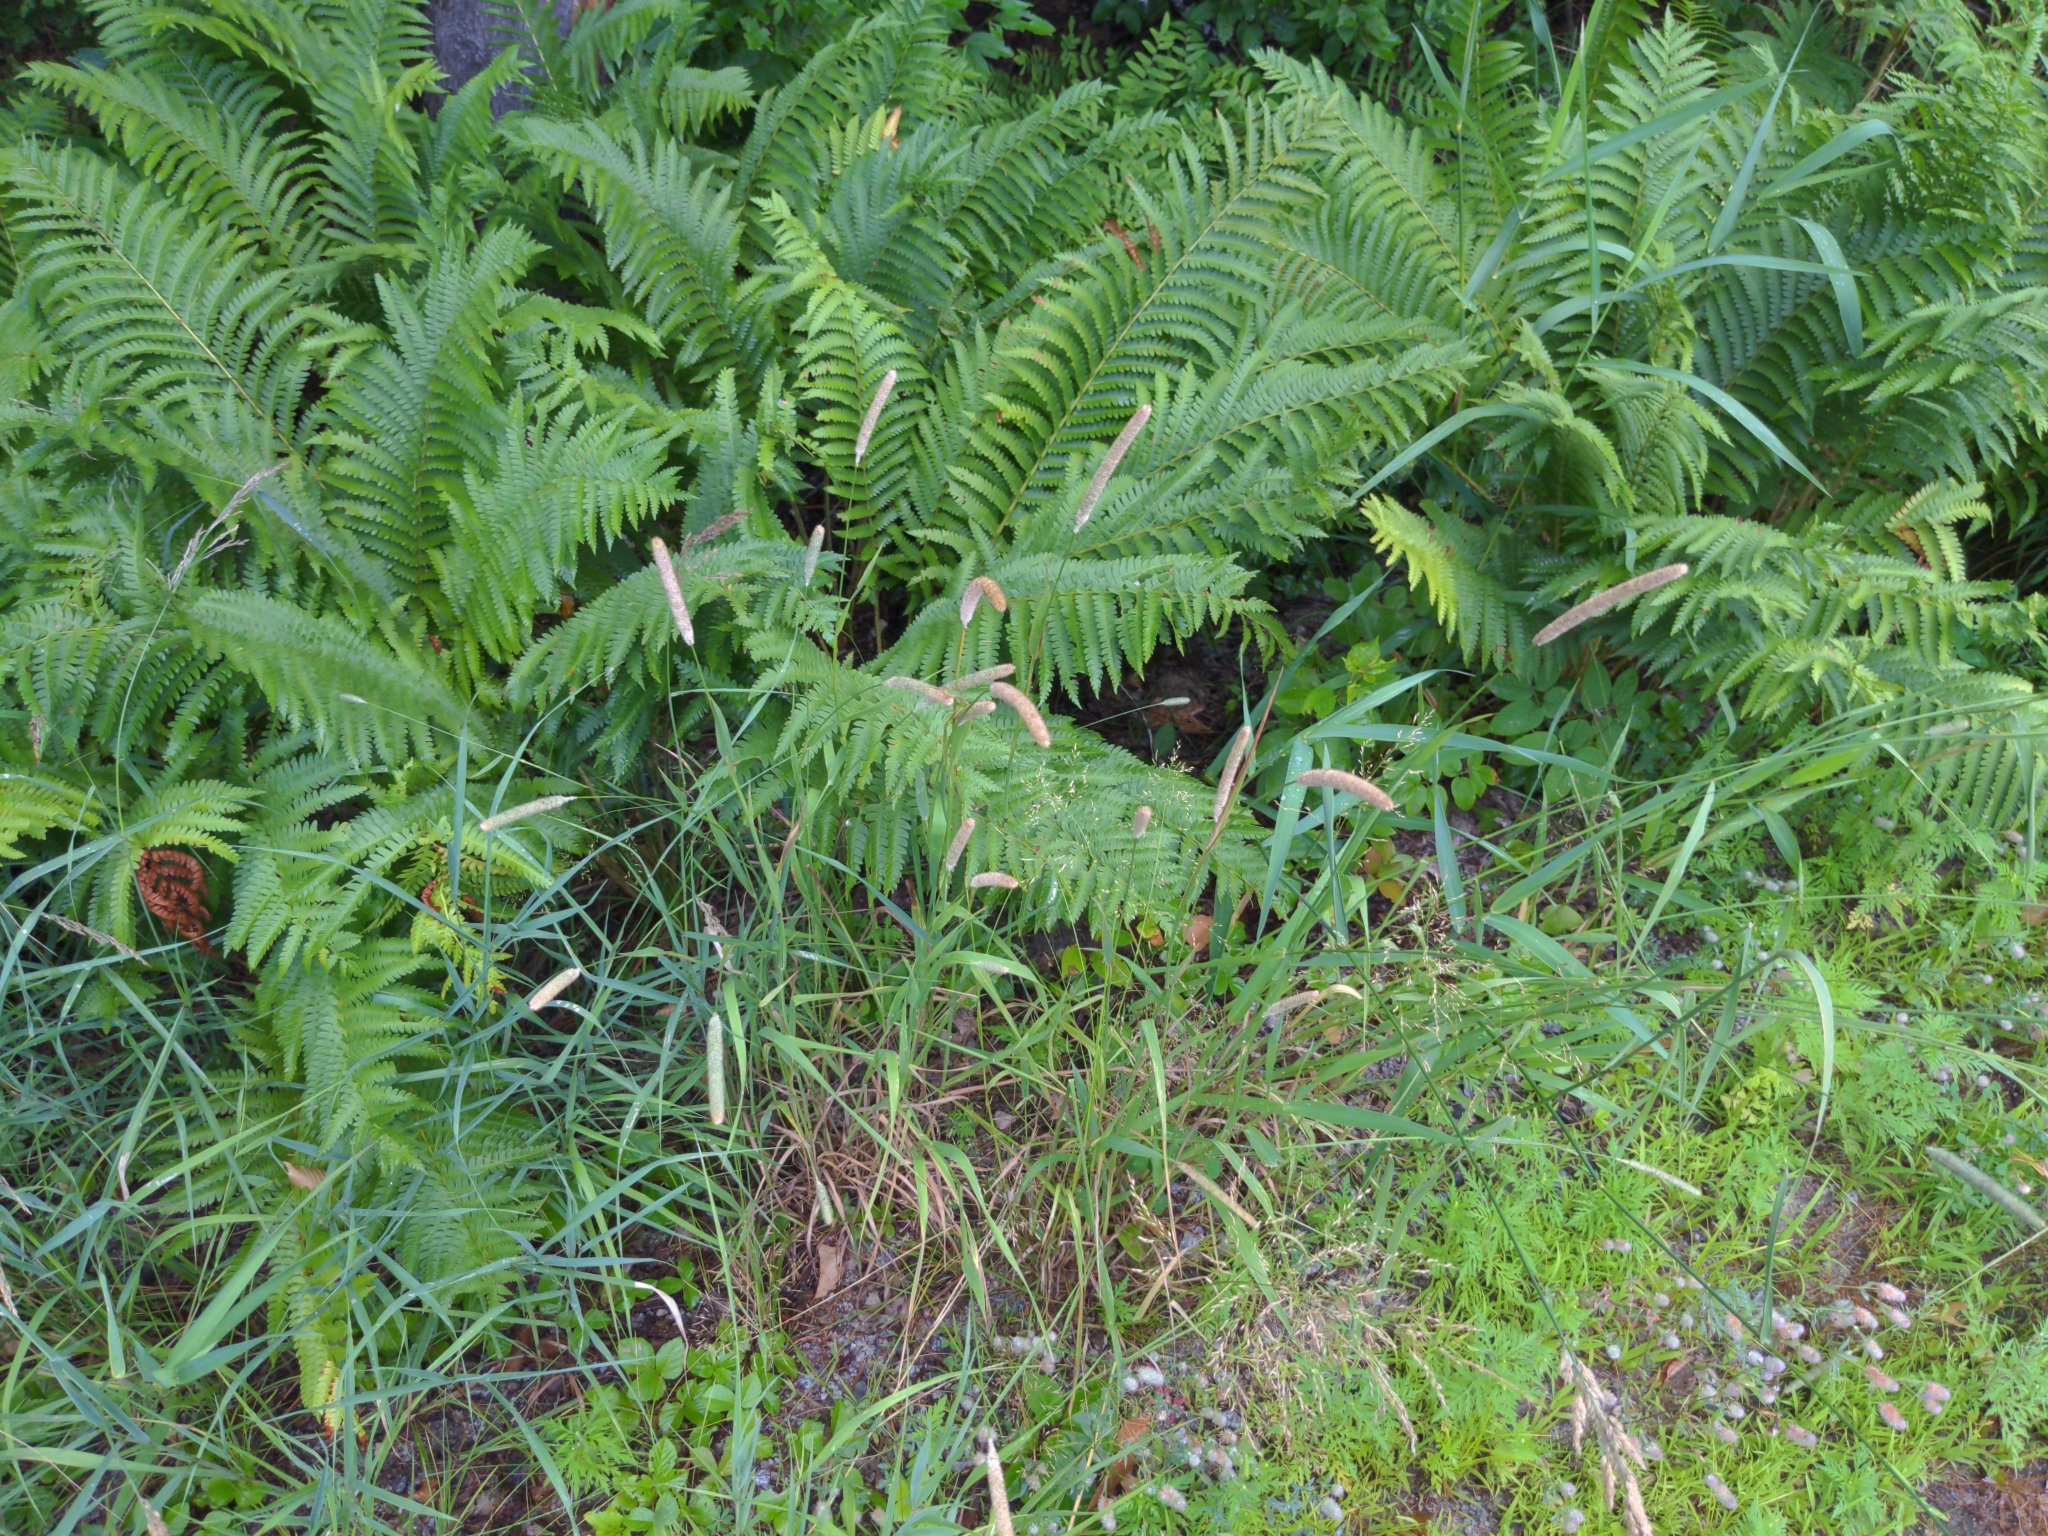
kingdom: Plantae
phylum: Tracheophyta
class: Liliopsida
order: Poales
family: Poaceae
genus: Phleum
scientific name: Phleum pratense
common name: Timothy grass
